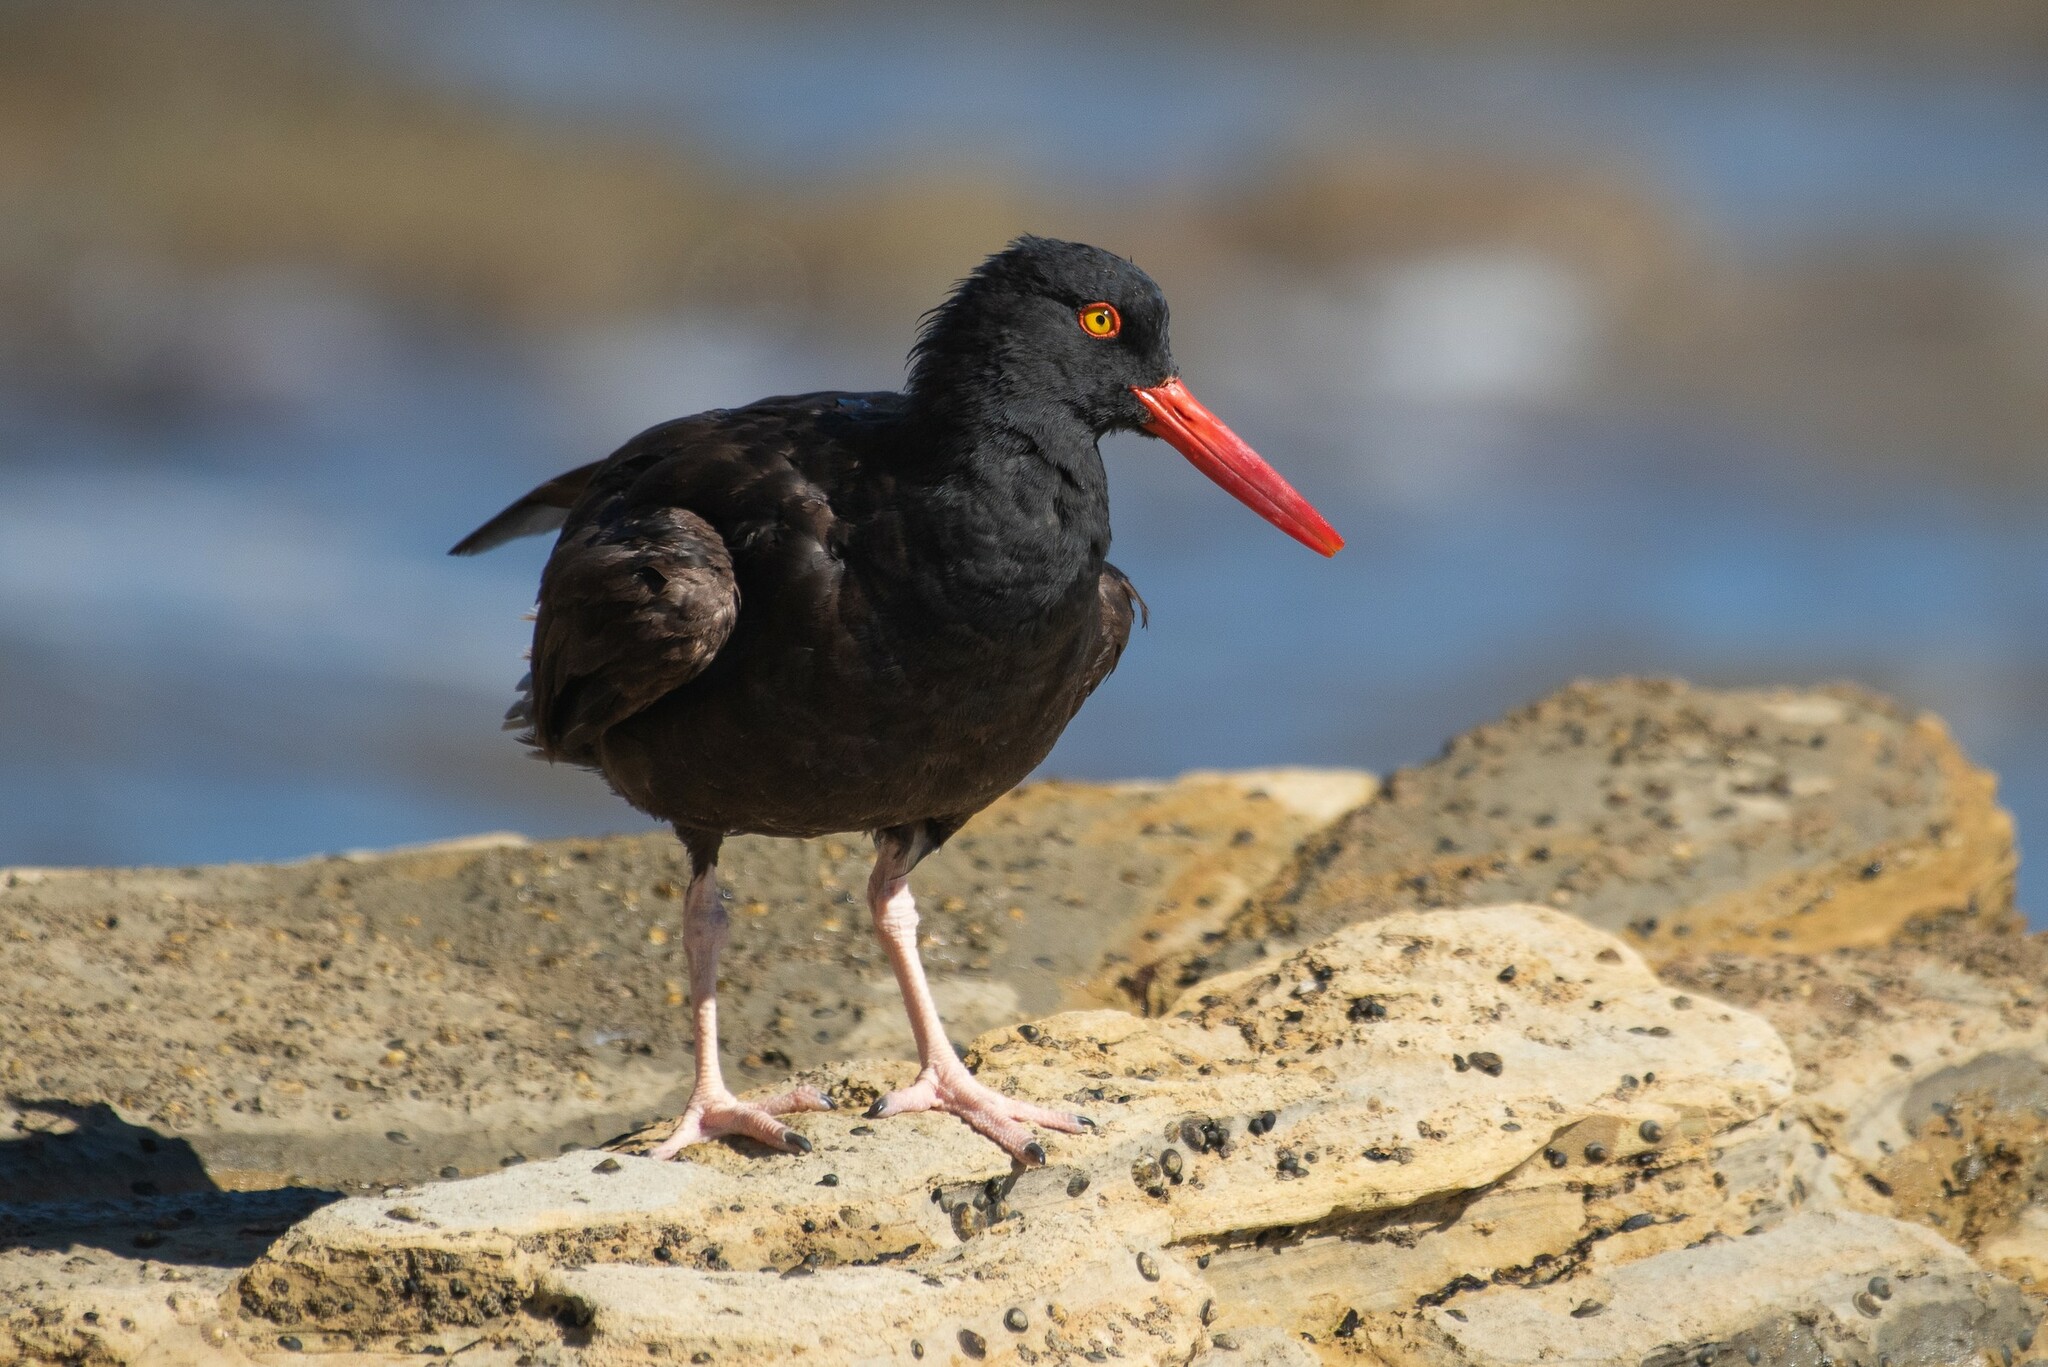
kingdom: Animalia
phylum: Chordata
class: Aves
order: Charadriiformes
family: Haematopodidae
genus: Haematopus
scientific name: Haematopus bachmani
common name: Black oystercatcher
